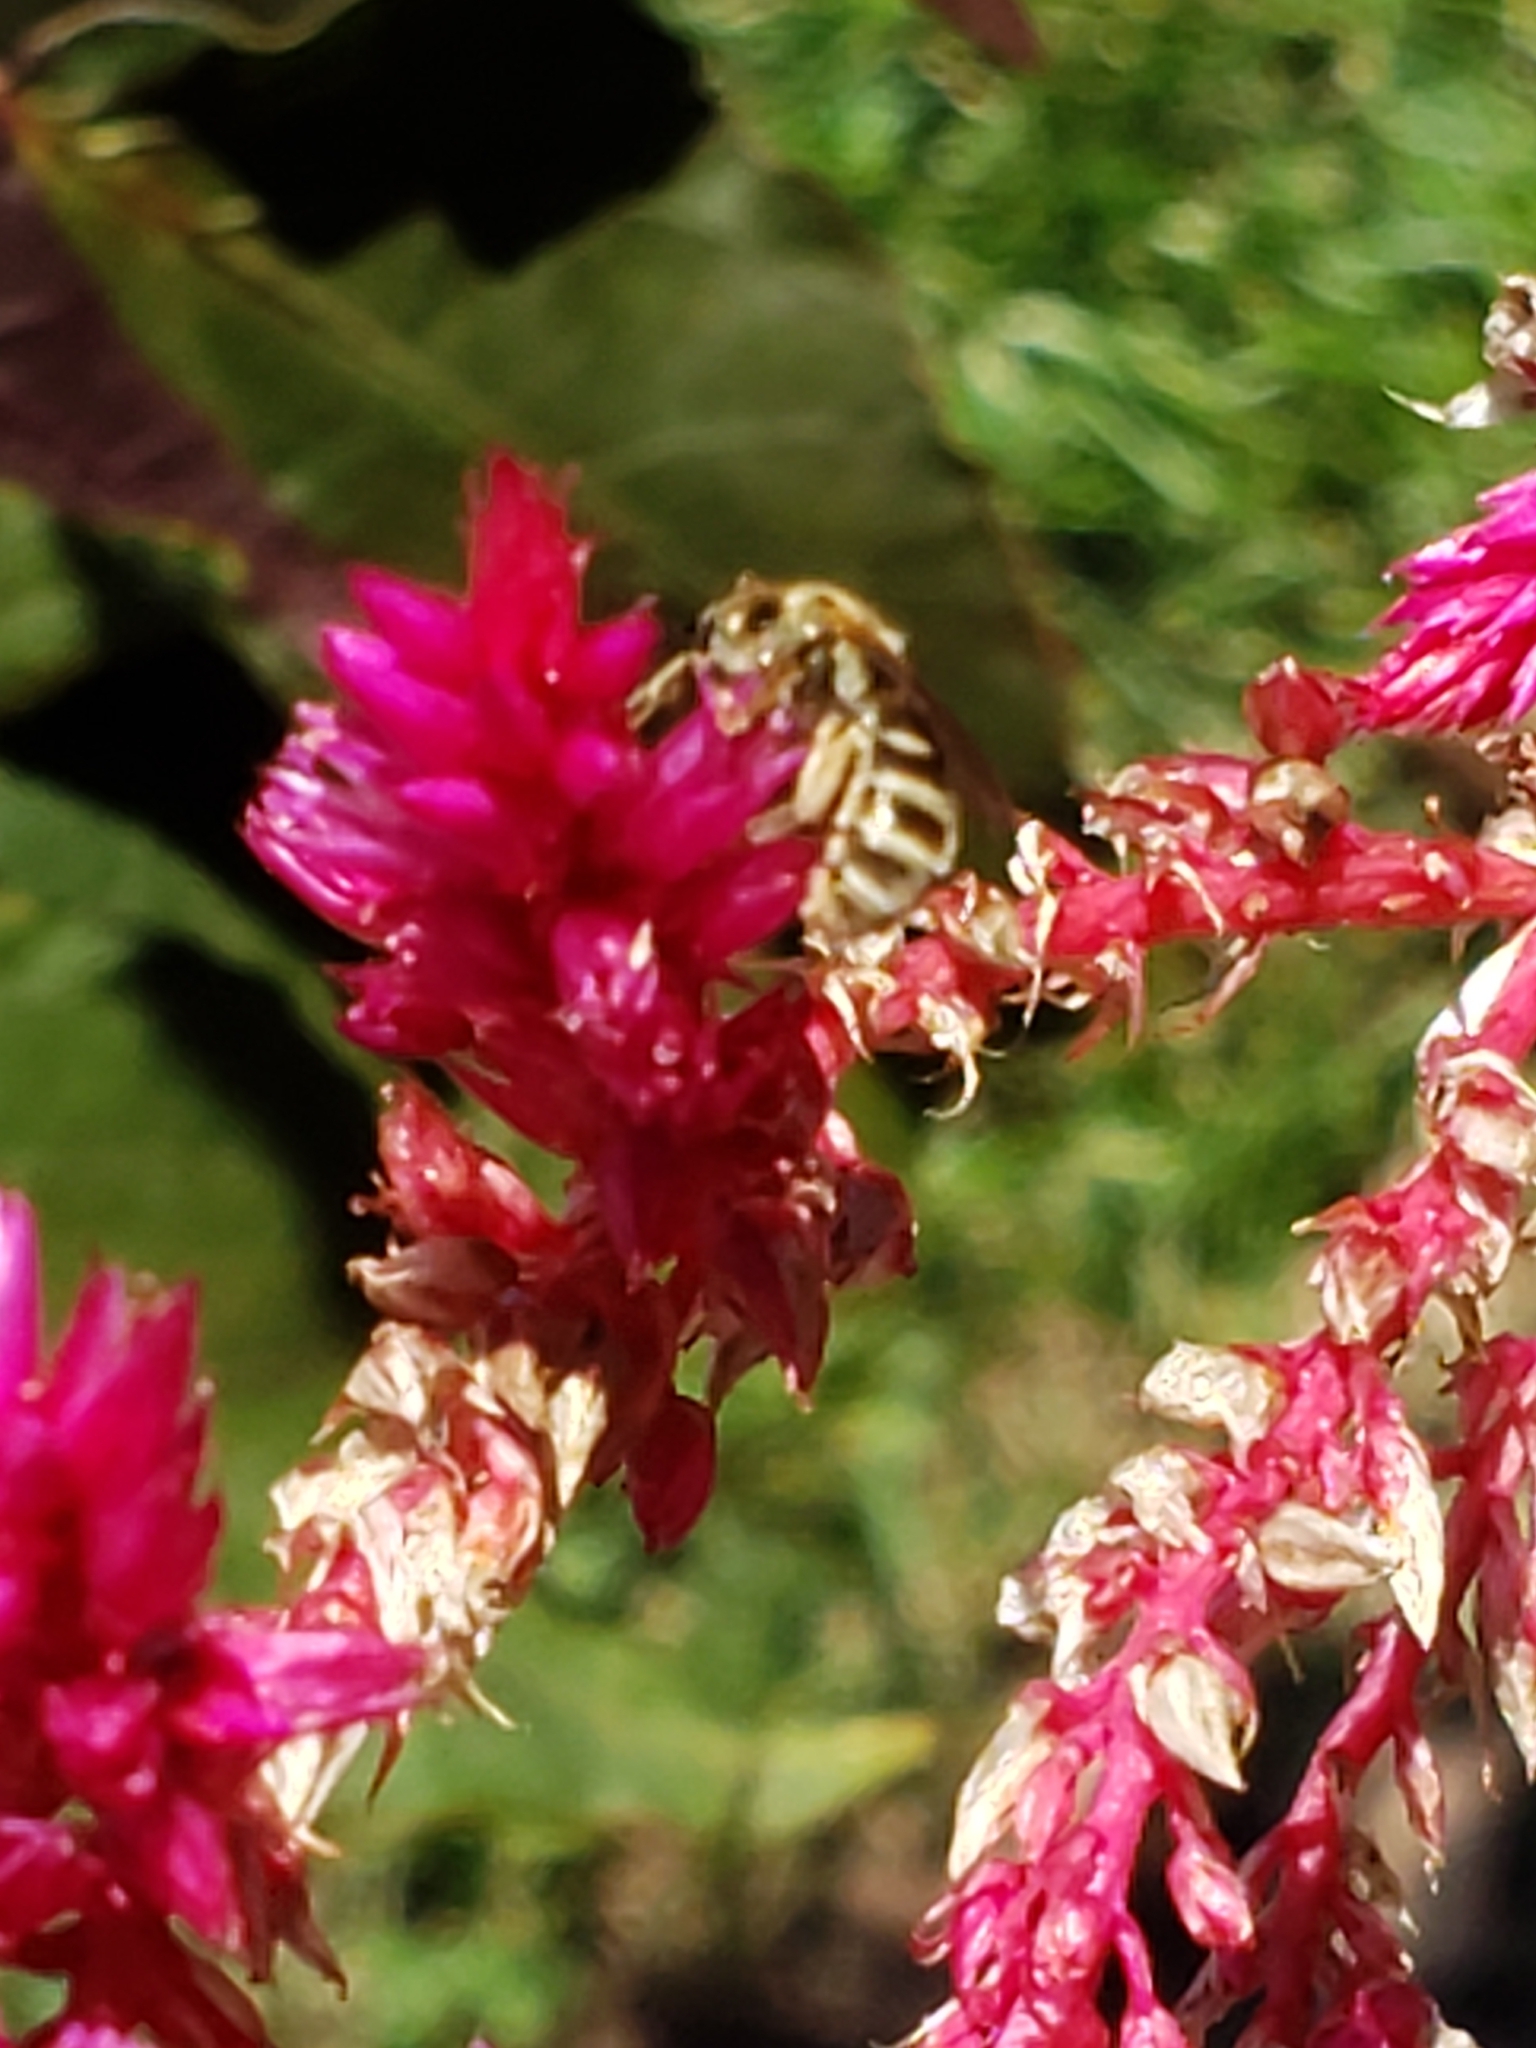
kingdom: Animalia
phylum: Arthropoda
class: Insecta
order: Hymenoptera
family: Halictidae
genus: Halictus
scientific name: Halictus confusus
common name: Southern bronze furrow bee
